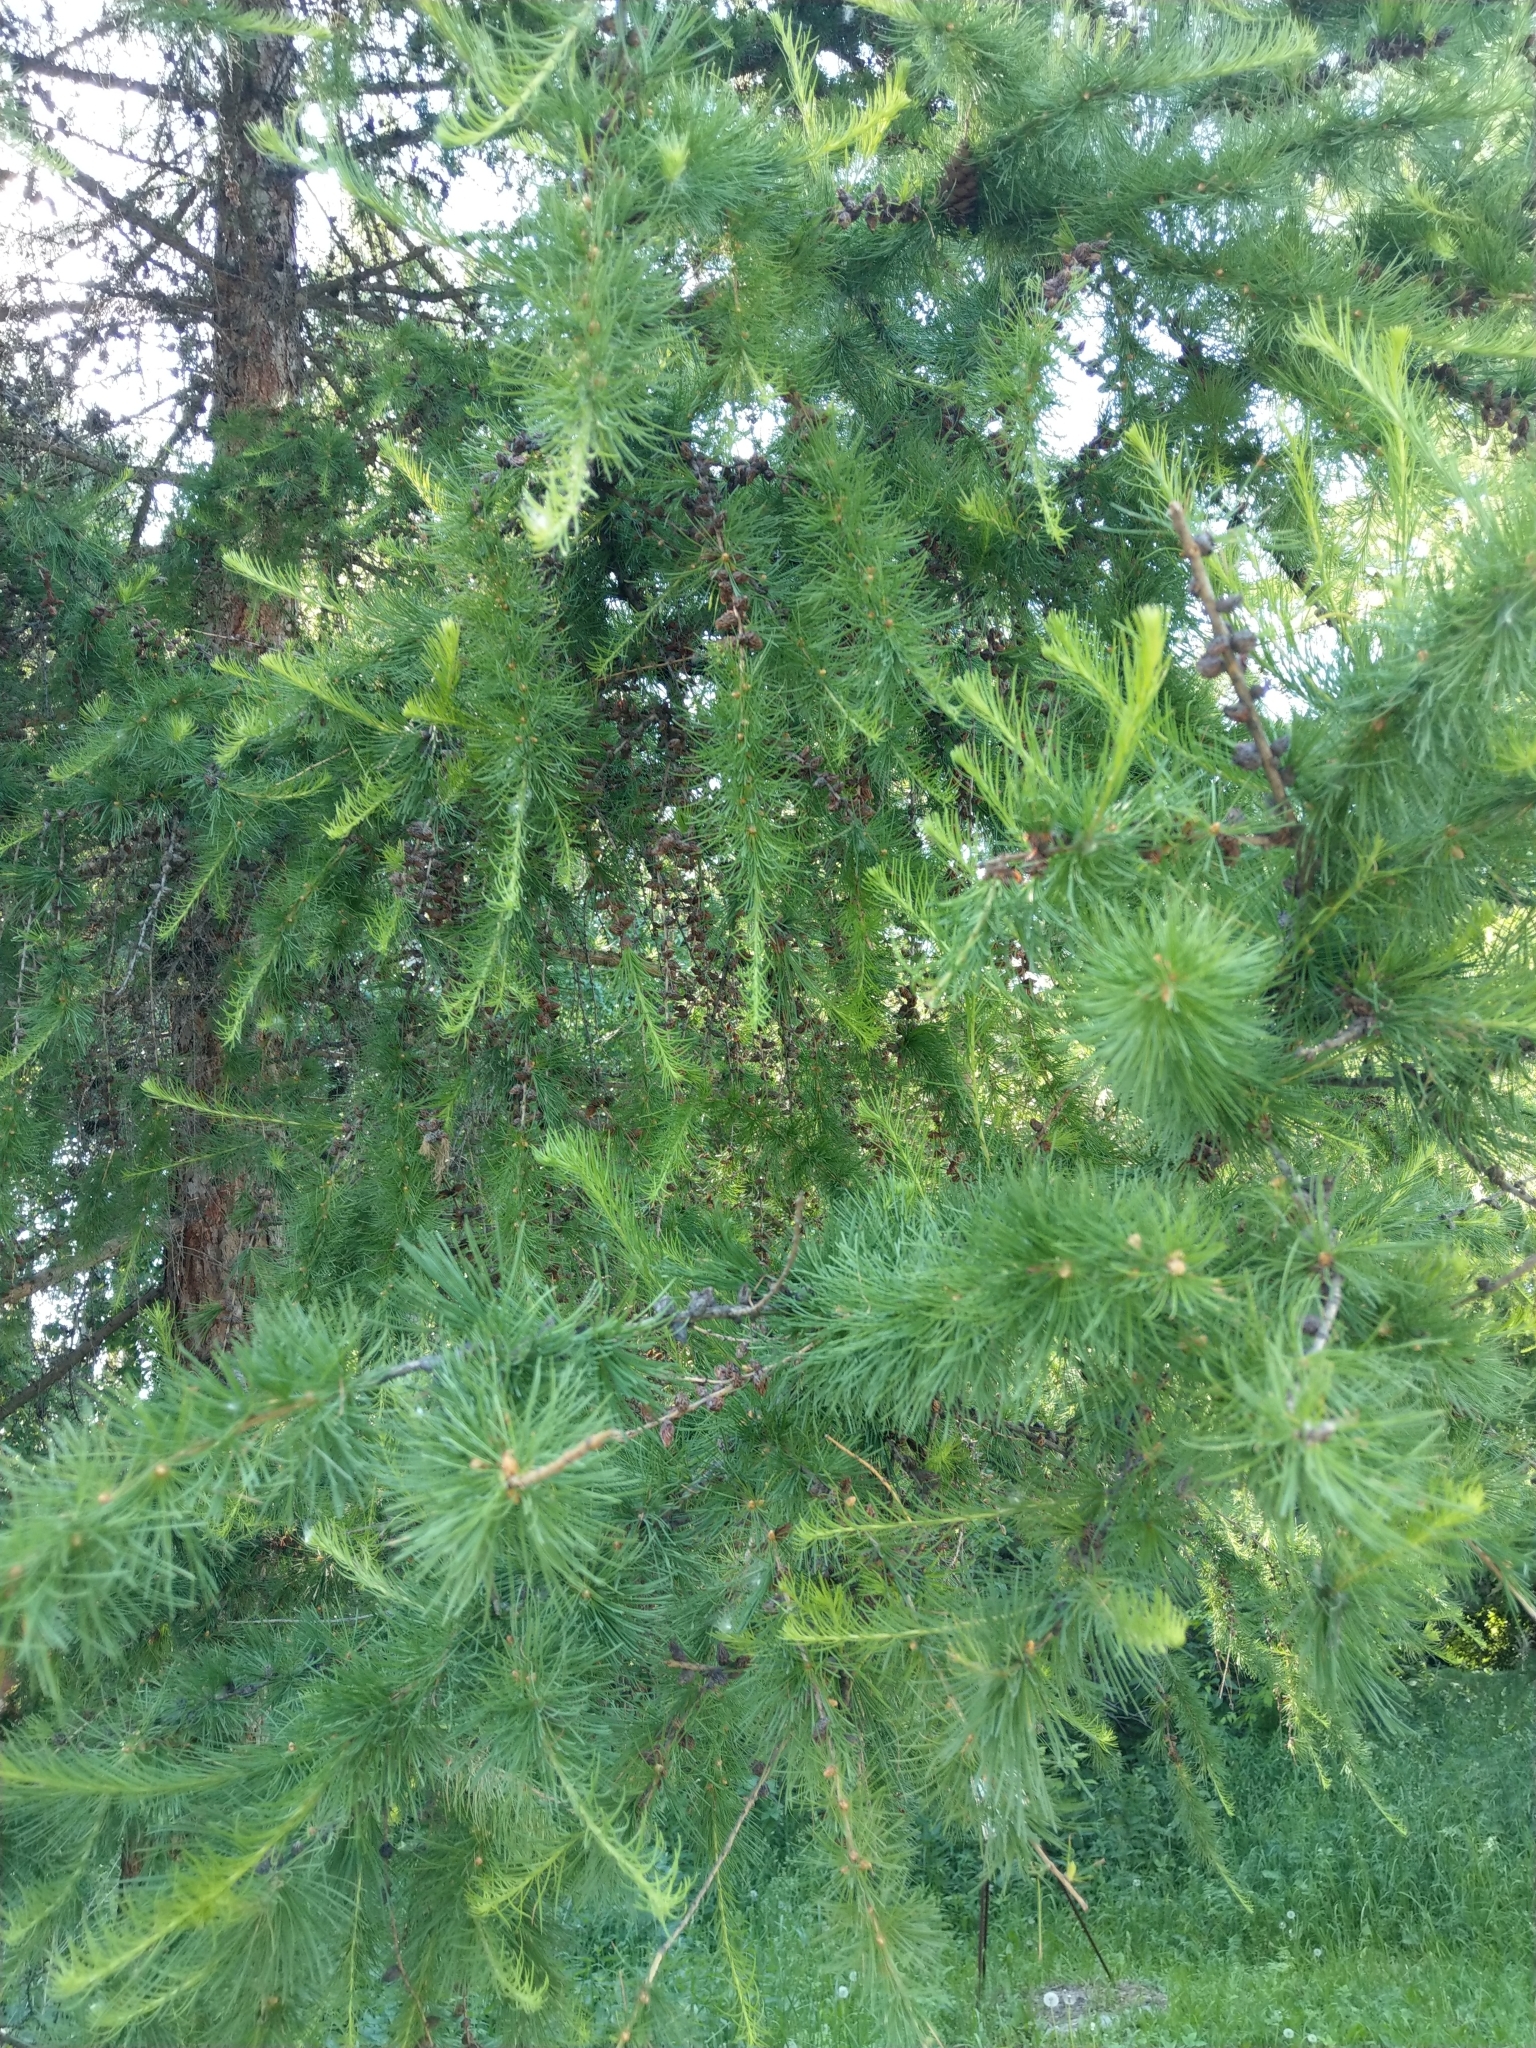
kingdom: Plantae
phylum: Tracheophyta
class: Pinopsida
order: Pinales
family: Pinaceae
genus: Larix
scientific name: Larix sibirica
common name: Siberian larch
